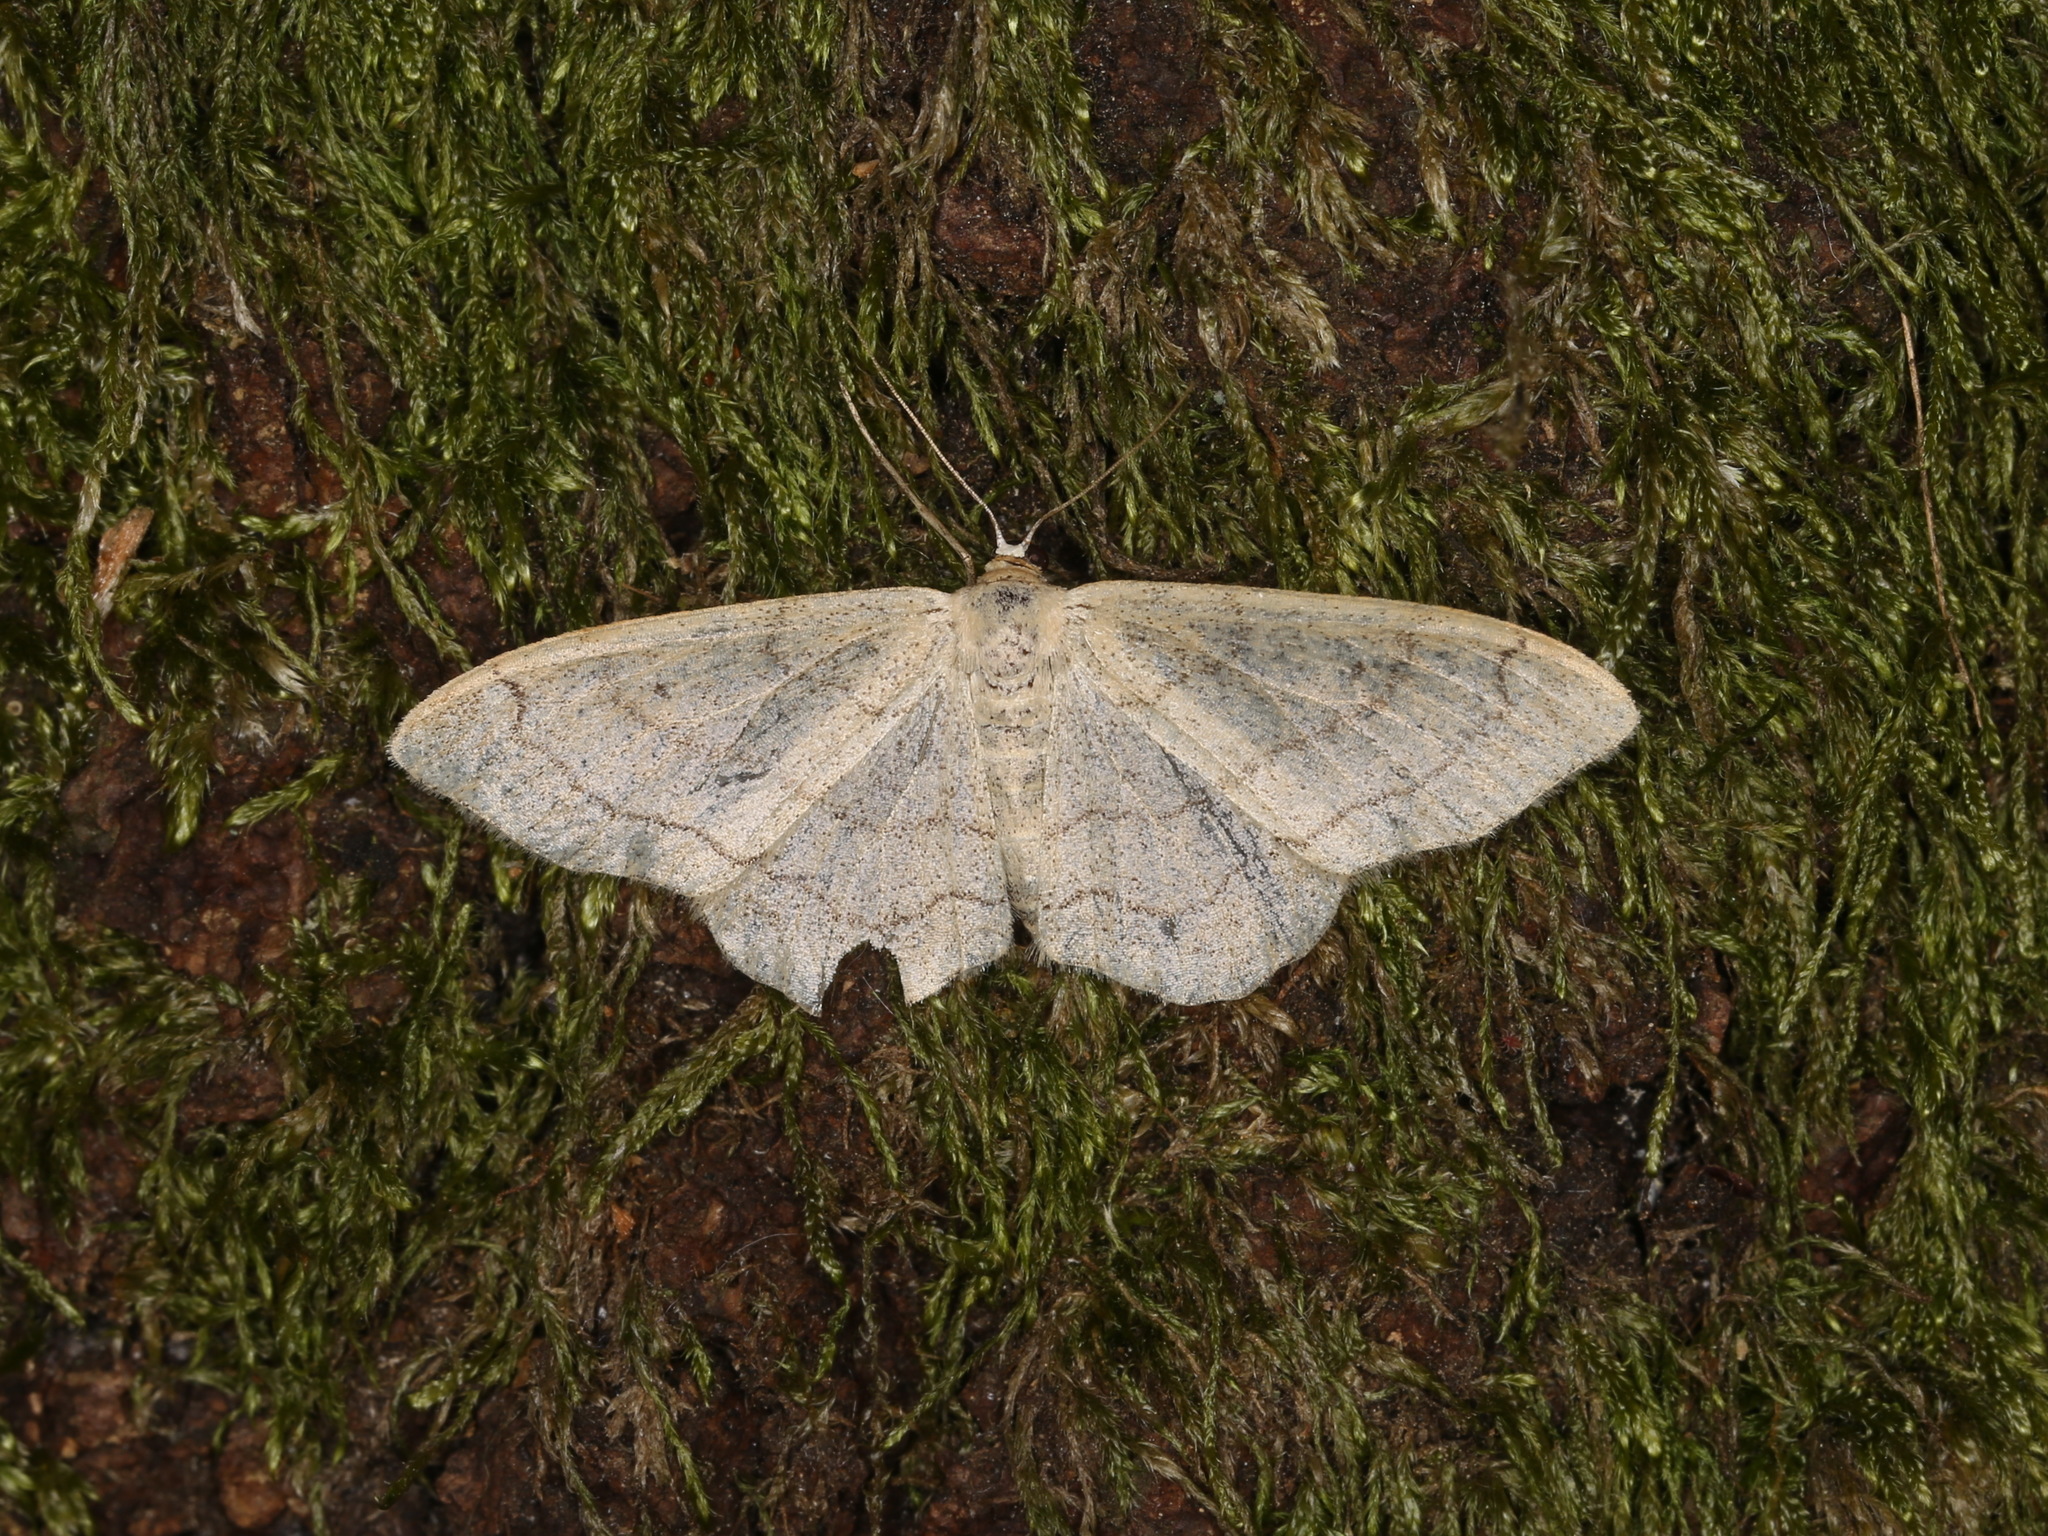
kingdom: Animalia
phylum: Arthropoda
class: Insecta
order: Lepidoptera
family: Geometridae
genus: Idaea
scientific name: Idaea aversata
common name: Riband wave
